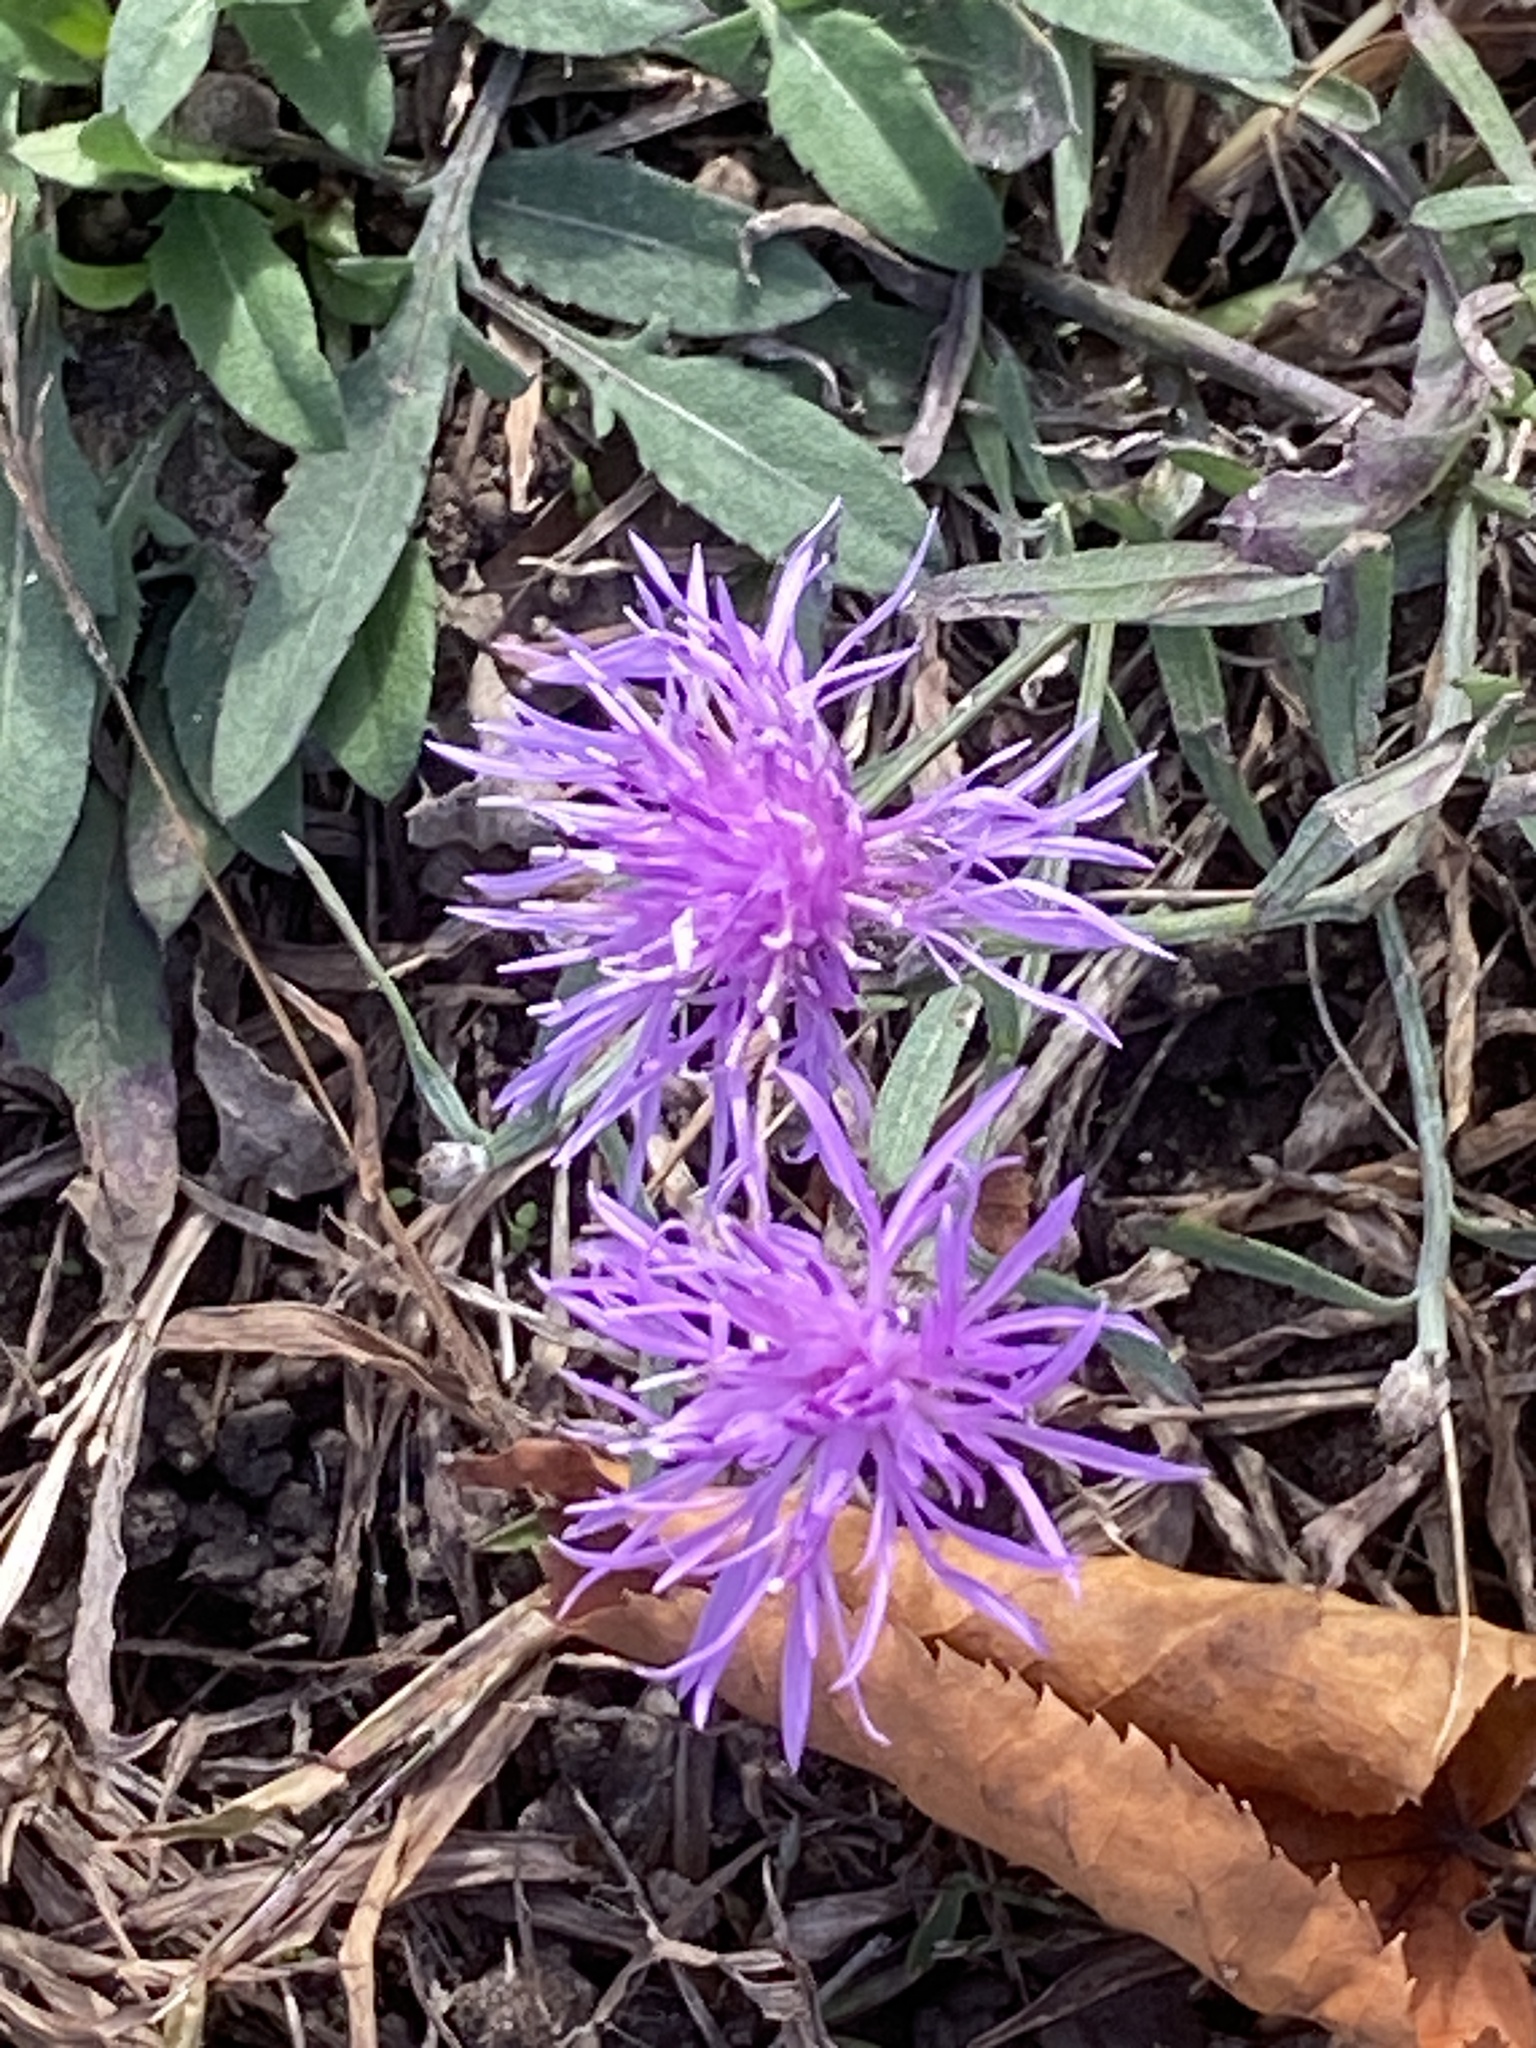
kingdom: Plantae
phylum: Tracheophyta
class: Magnoliopsida
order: Asterales
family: Asteraceae
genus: Centaurea
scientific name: Centaurea stoebe
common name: Spotted knapweed
